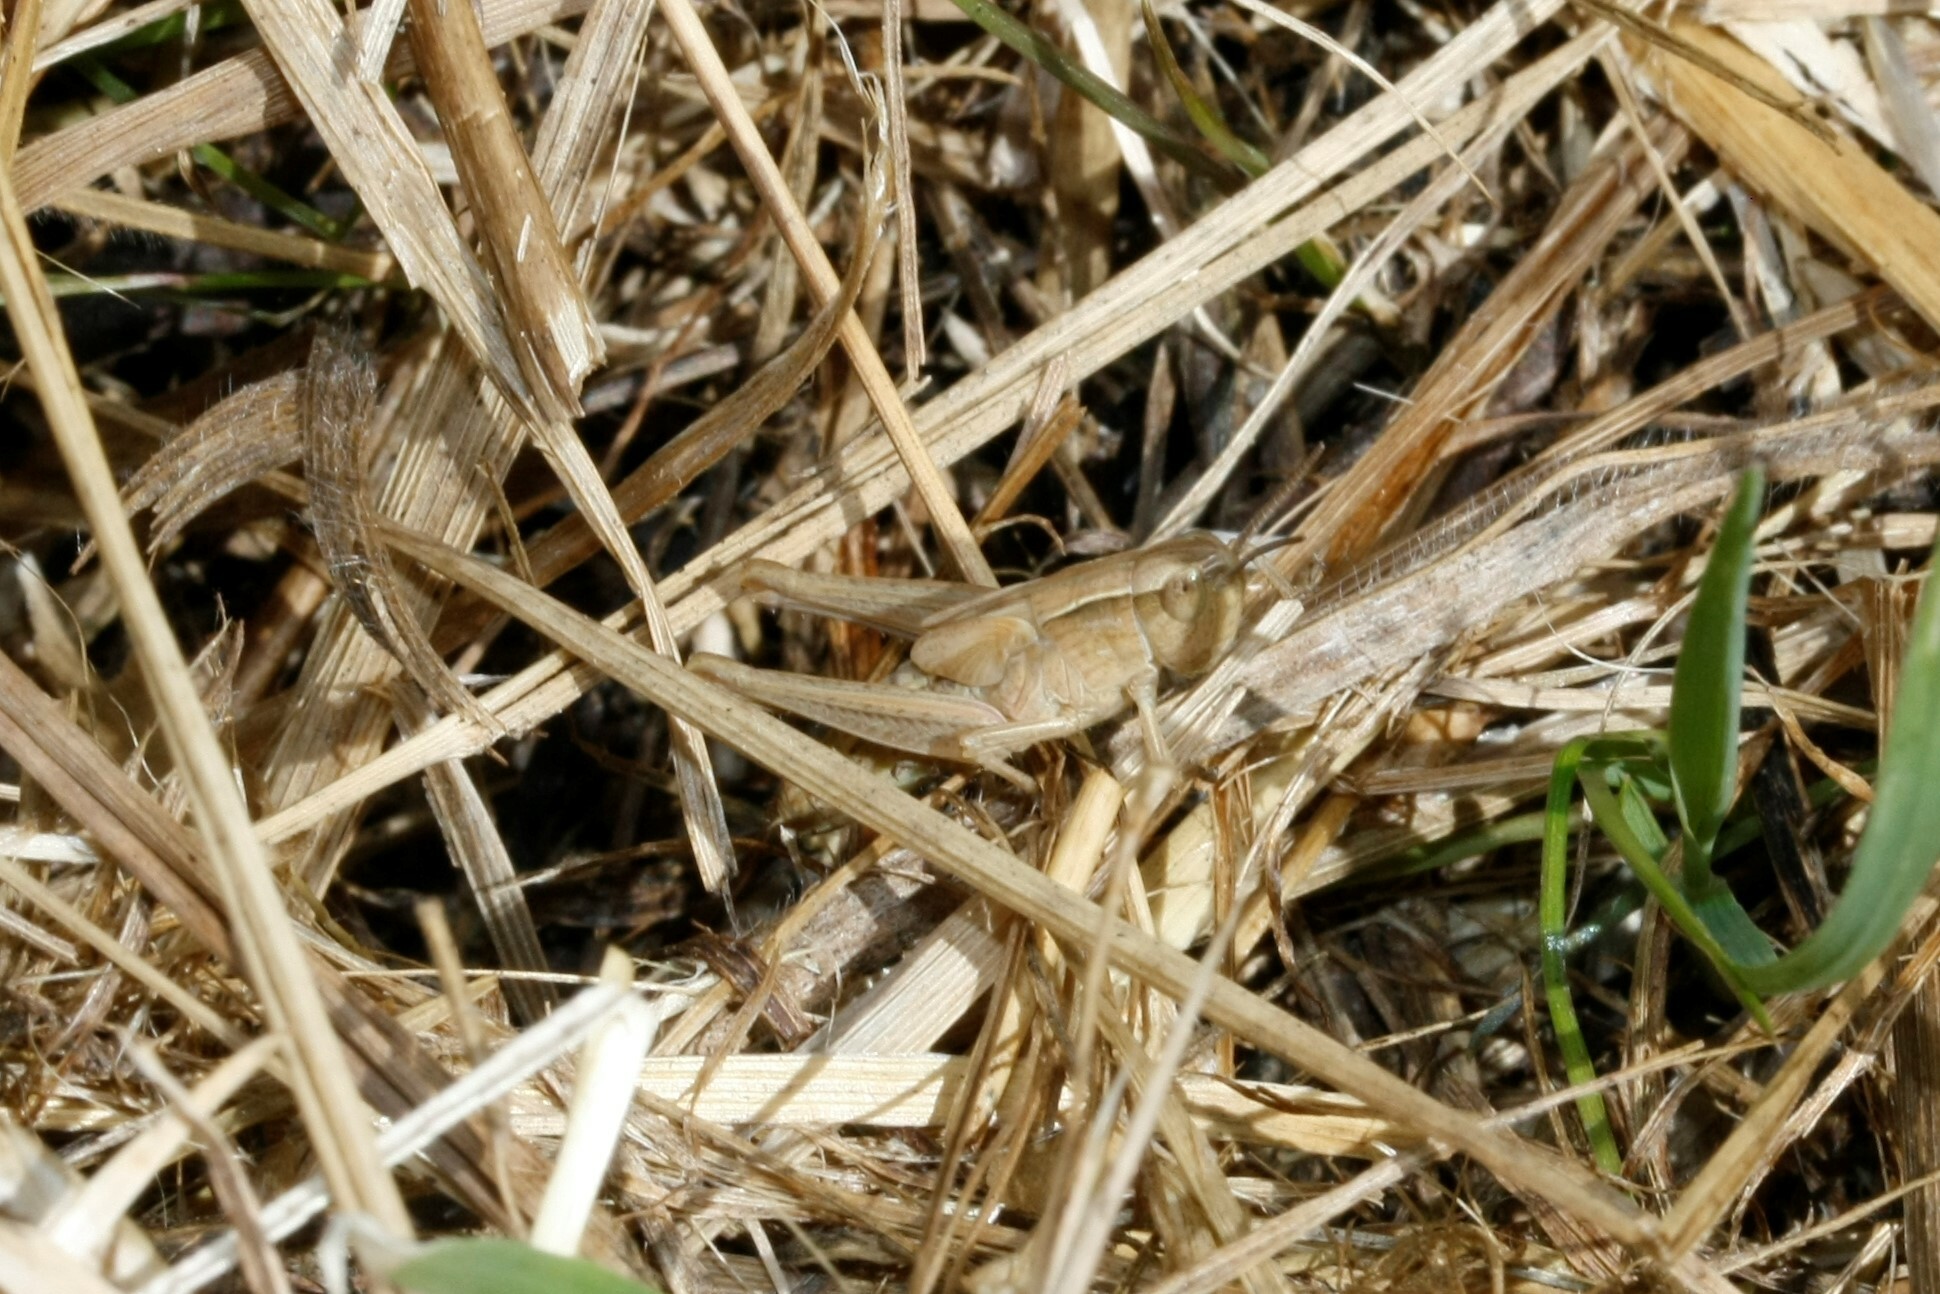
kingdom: Animalia
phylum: Arthropoda
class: Insecta
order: Orthoptera
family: Acrididae
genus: Chorthippus
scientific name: Chorthippus albomarginatus
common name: Lesser marsh grasshopper
